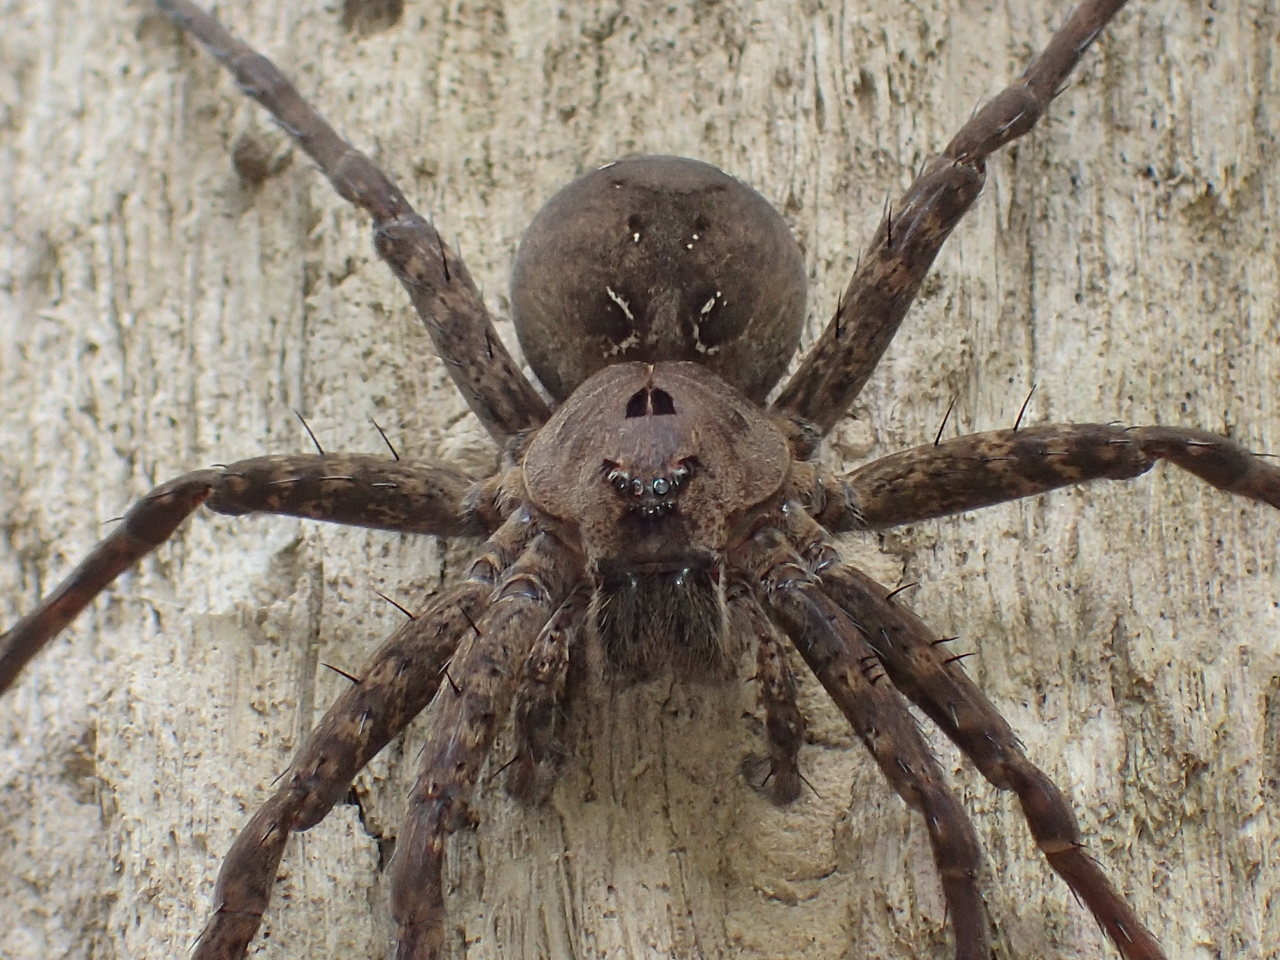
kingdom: Animalia
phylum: Arthropoda
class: Arachnida
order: Araneae
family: Pisauridae
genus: Dolomedes
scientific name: Dolomedes vittatus
